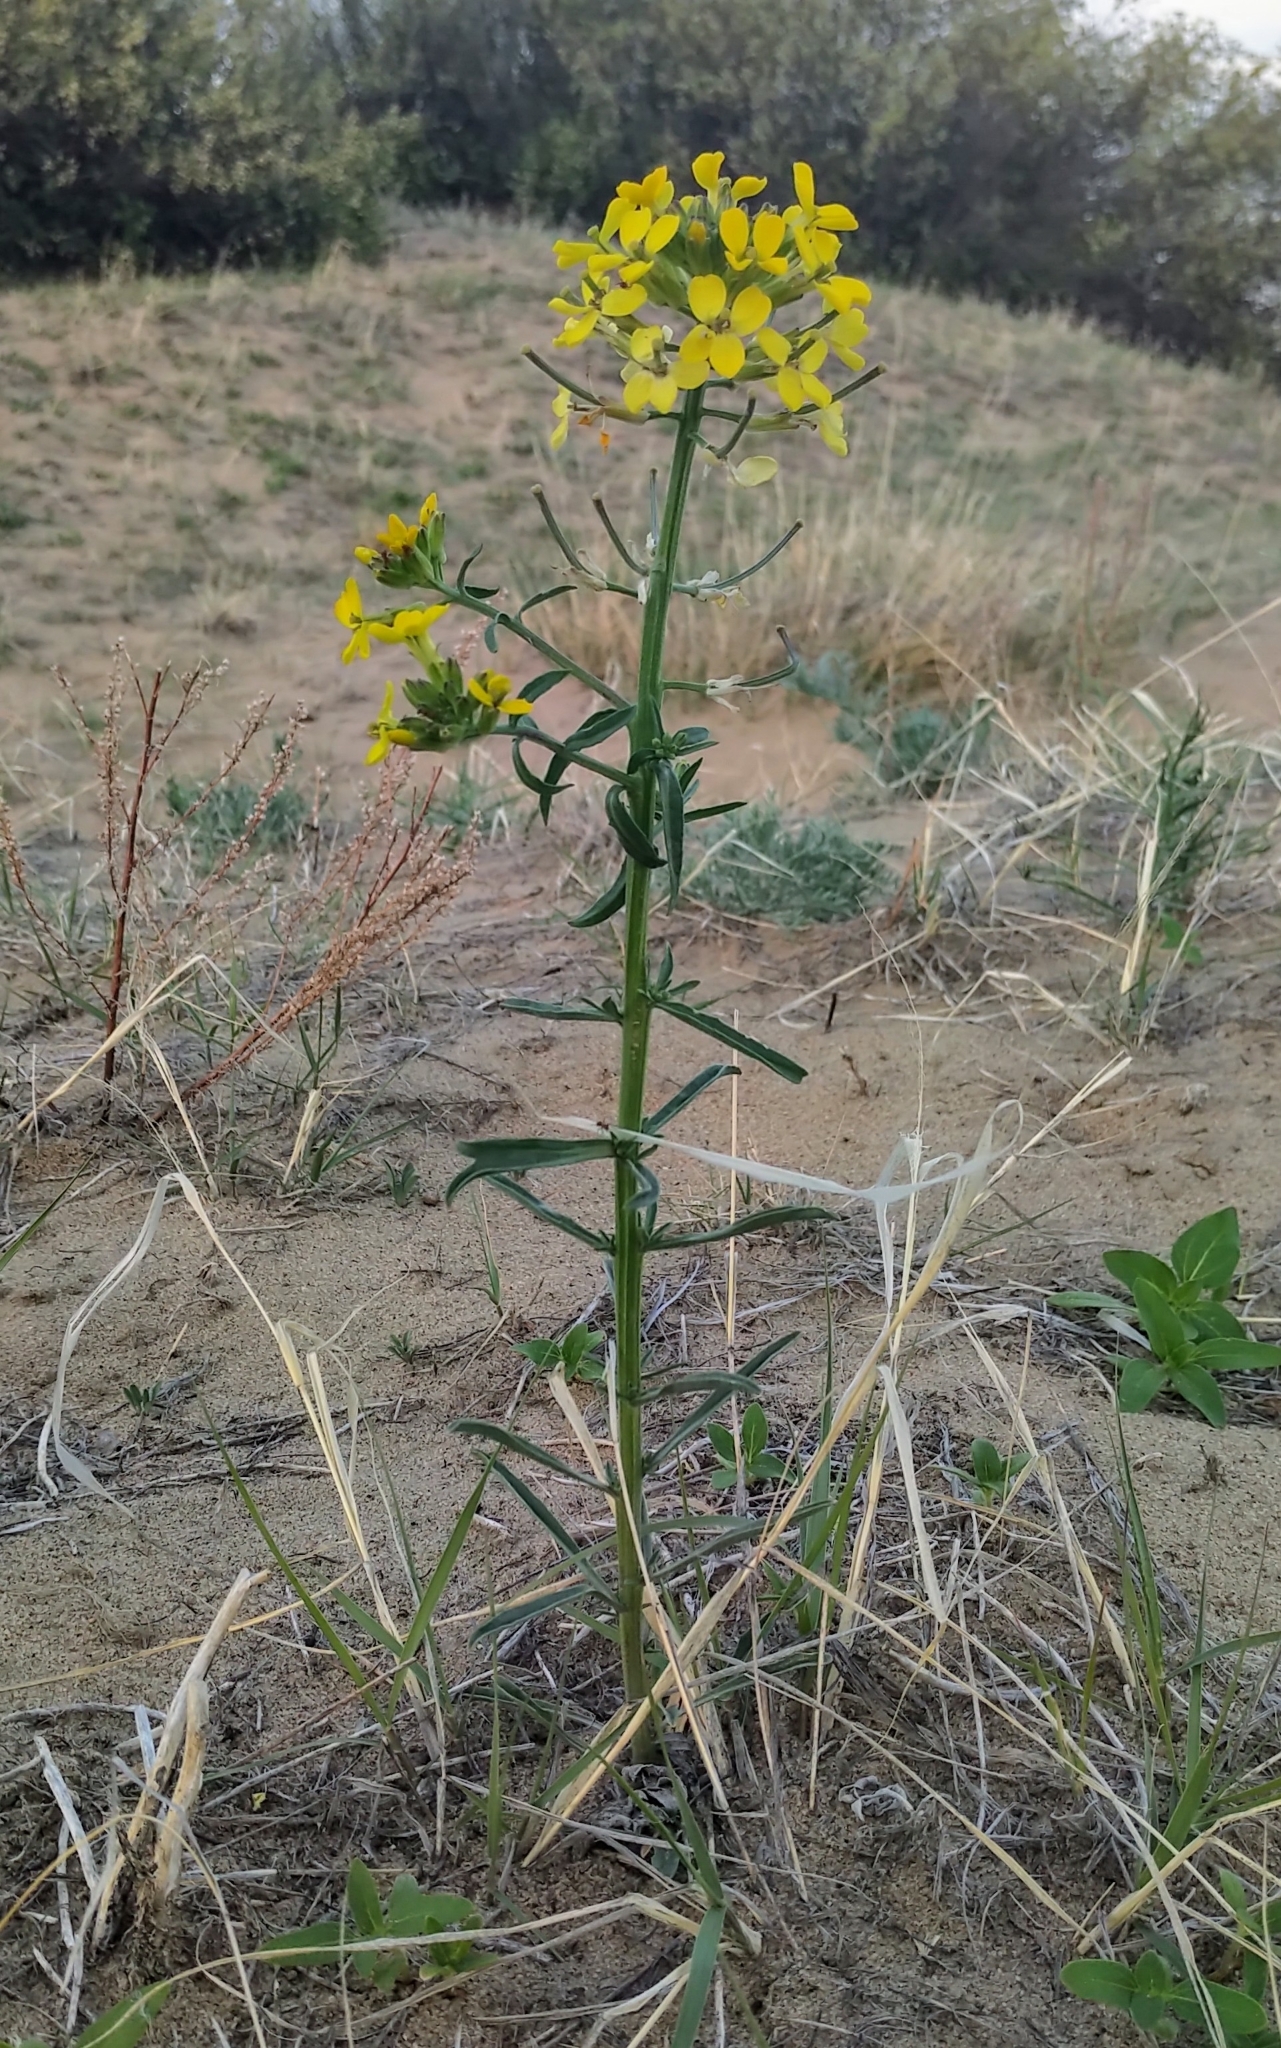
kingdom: Plantae
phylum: Tracheophyta
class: Magnoliopsida
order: Brassicales
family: Brassicaceae
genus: Erysimum
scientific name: Erysimum asperum
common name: Western wallflower
